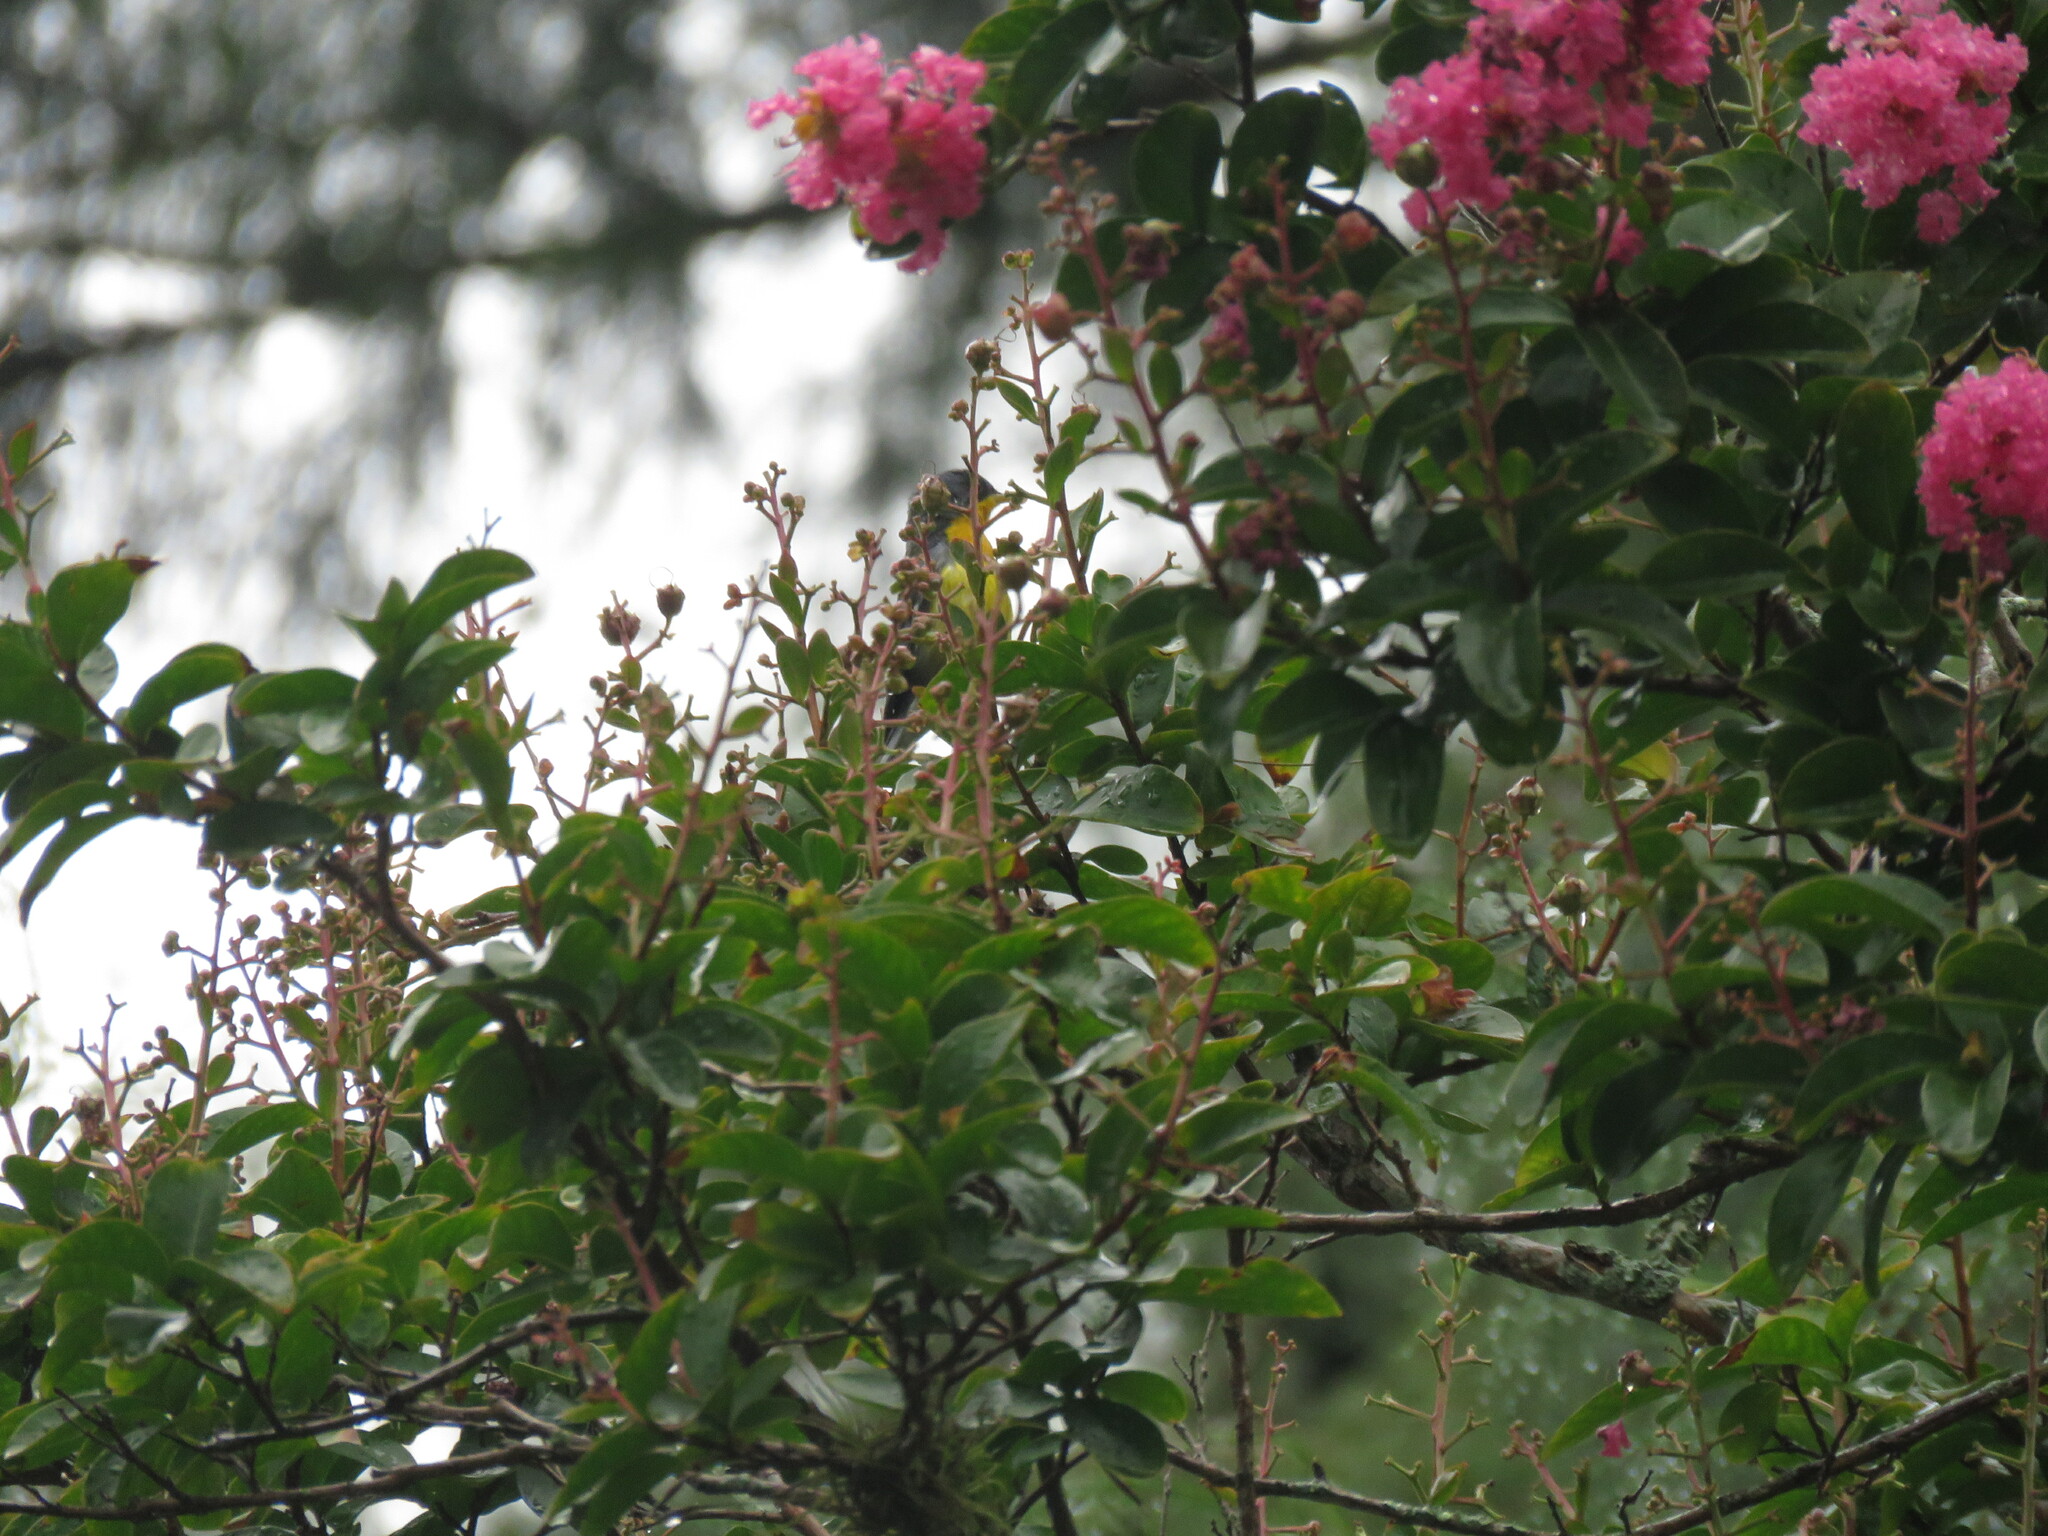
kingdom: Animalia
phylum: Chordata
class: Aves
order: Passeriformes
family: Parulidae
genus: Setophaga
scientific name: Setophaga pitiayumi
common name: Tropical parula
